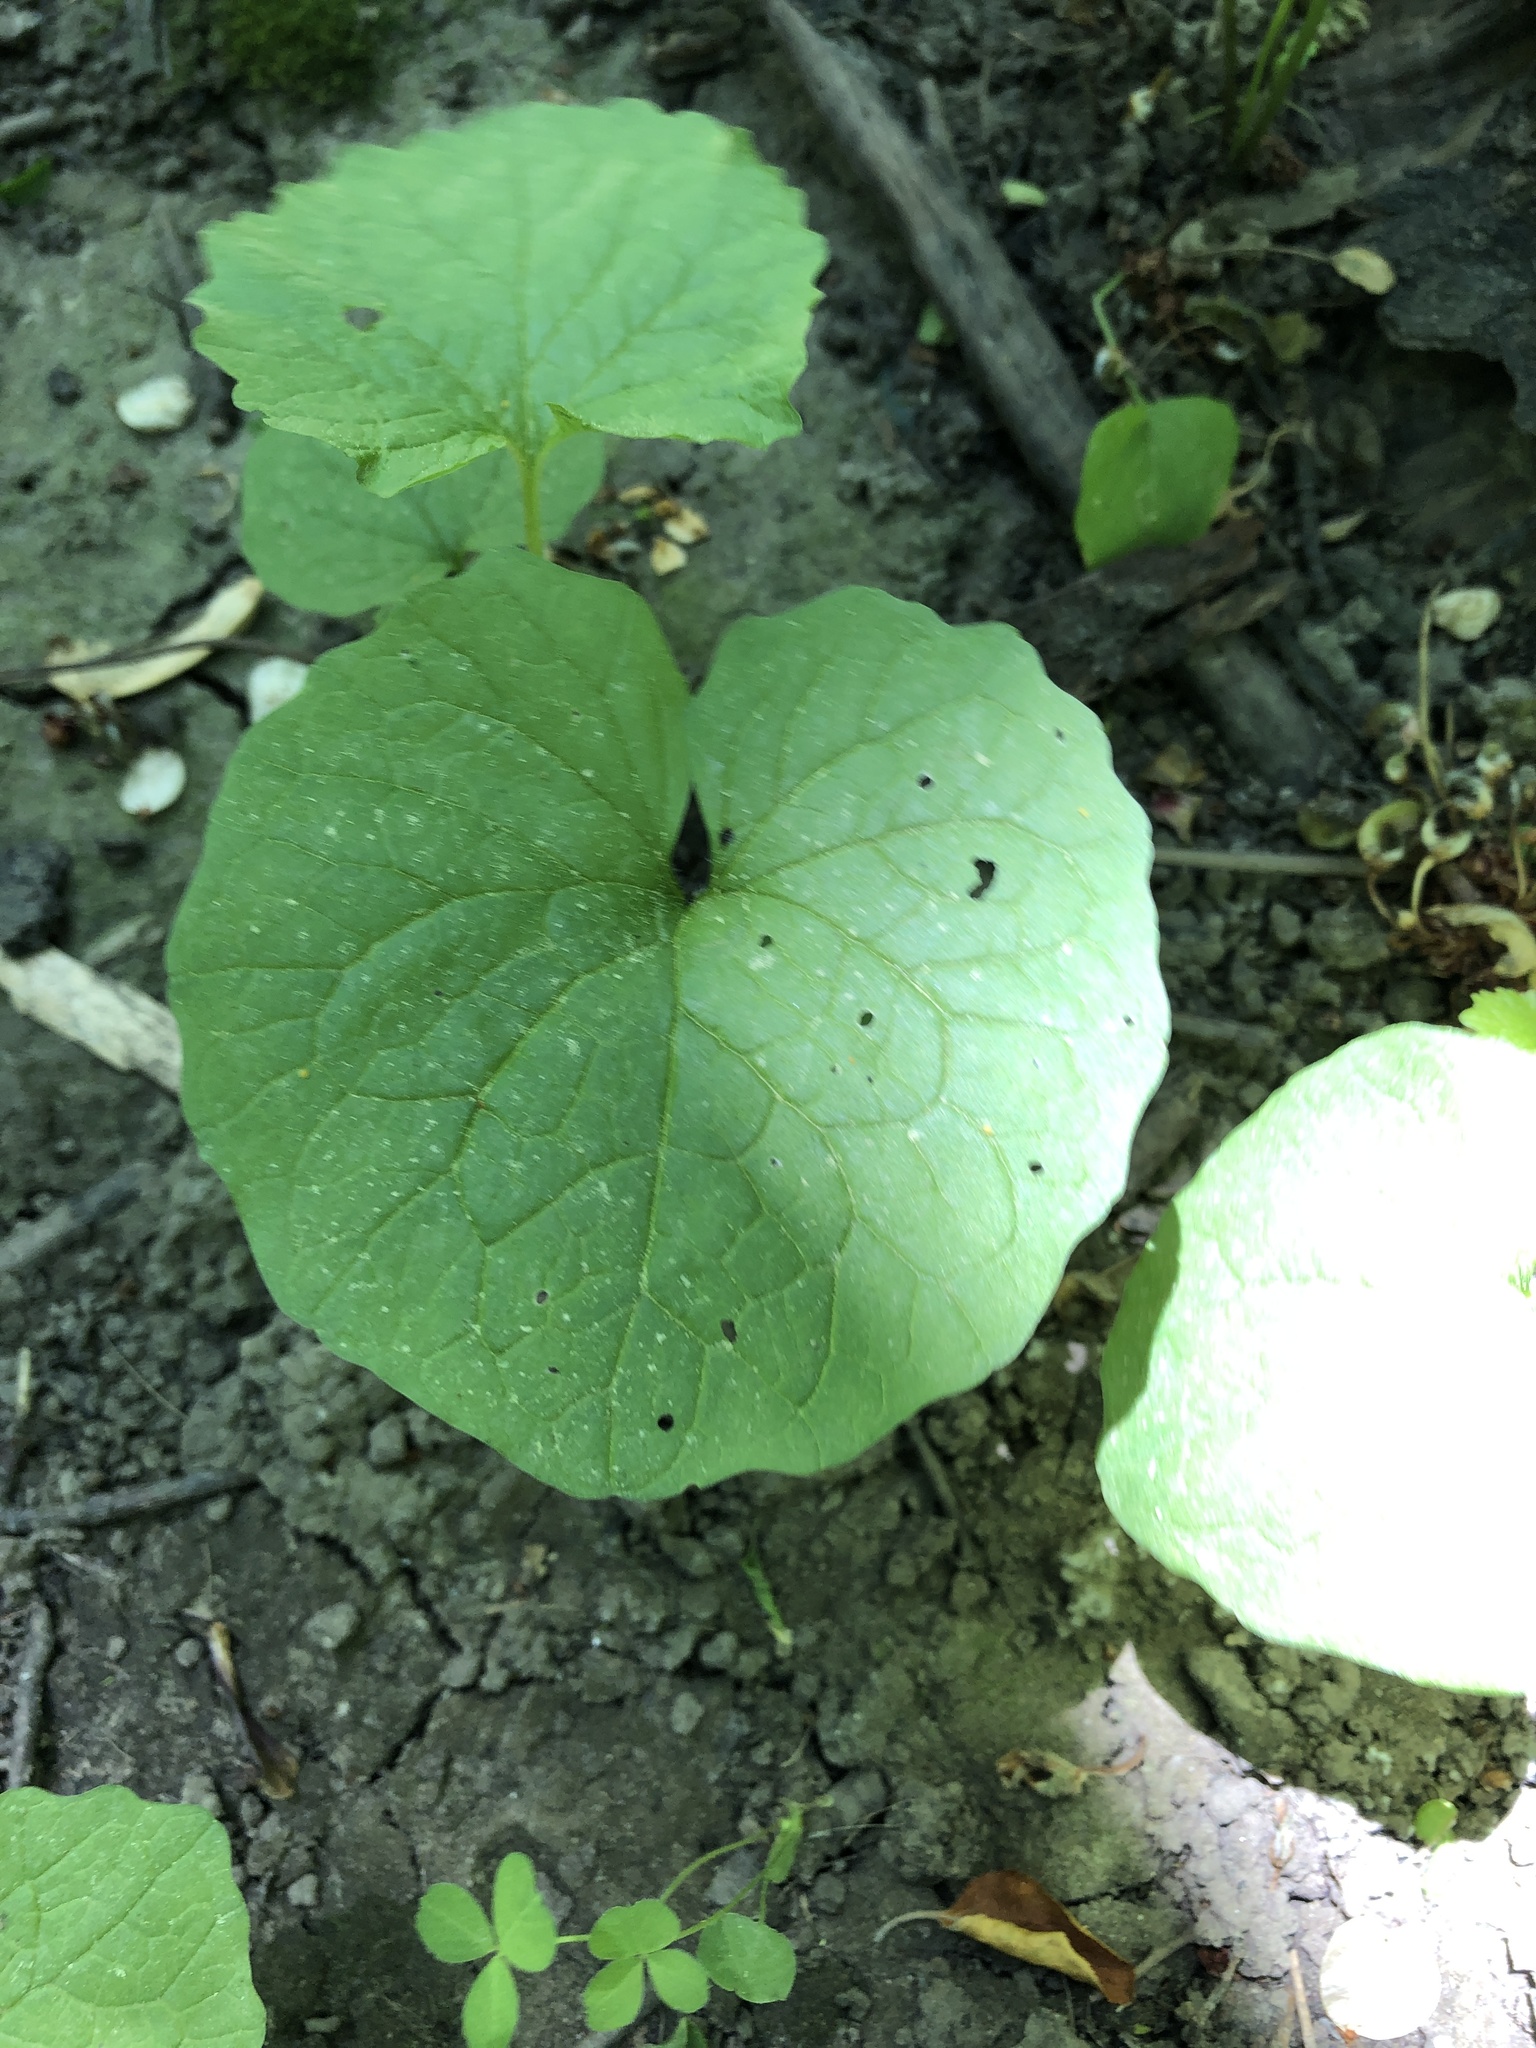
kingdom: Plantae
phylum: Tracheophyta
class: Magnoliopsida
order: Brassicales
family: Brassicaceae
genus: Alliaria
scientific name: Alliaria petiolata
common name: Garlic mustard
